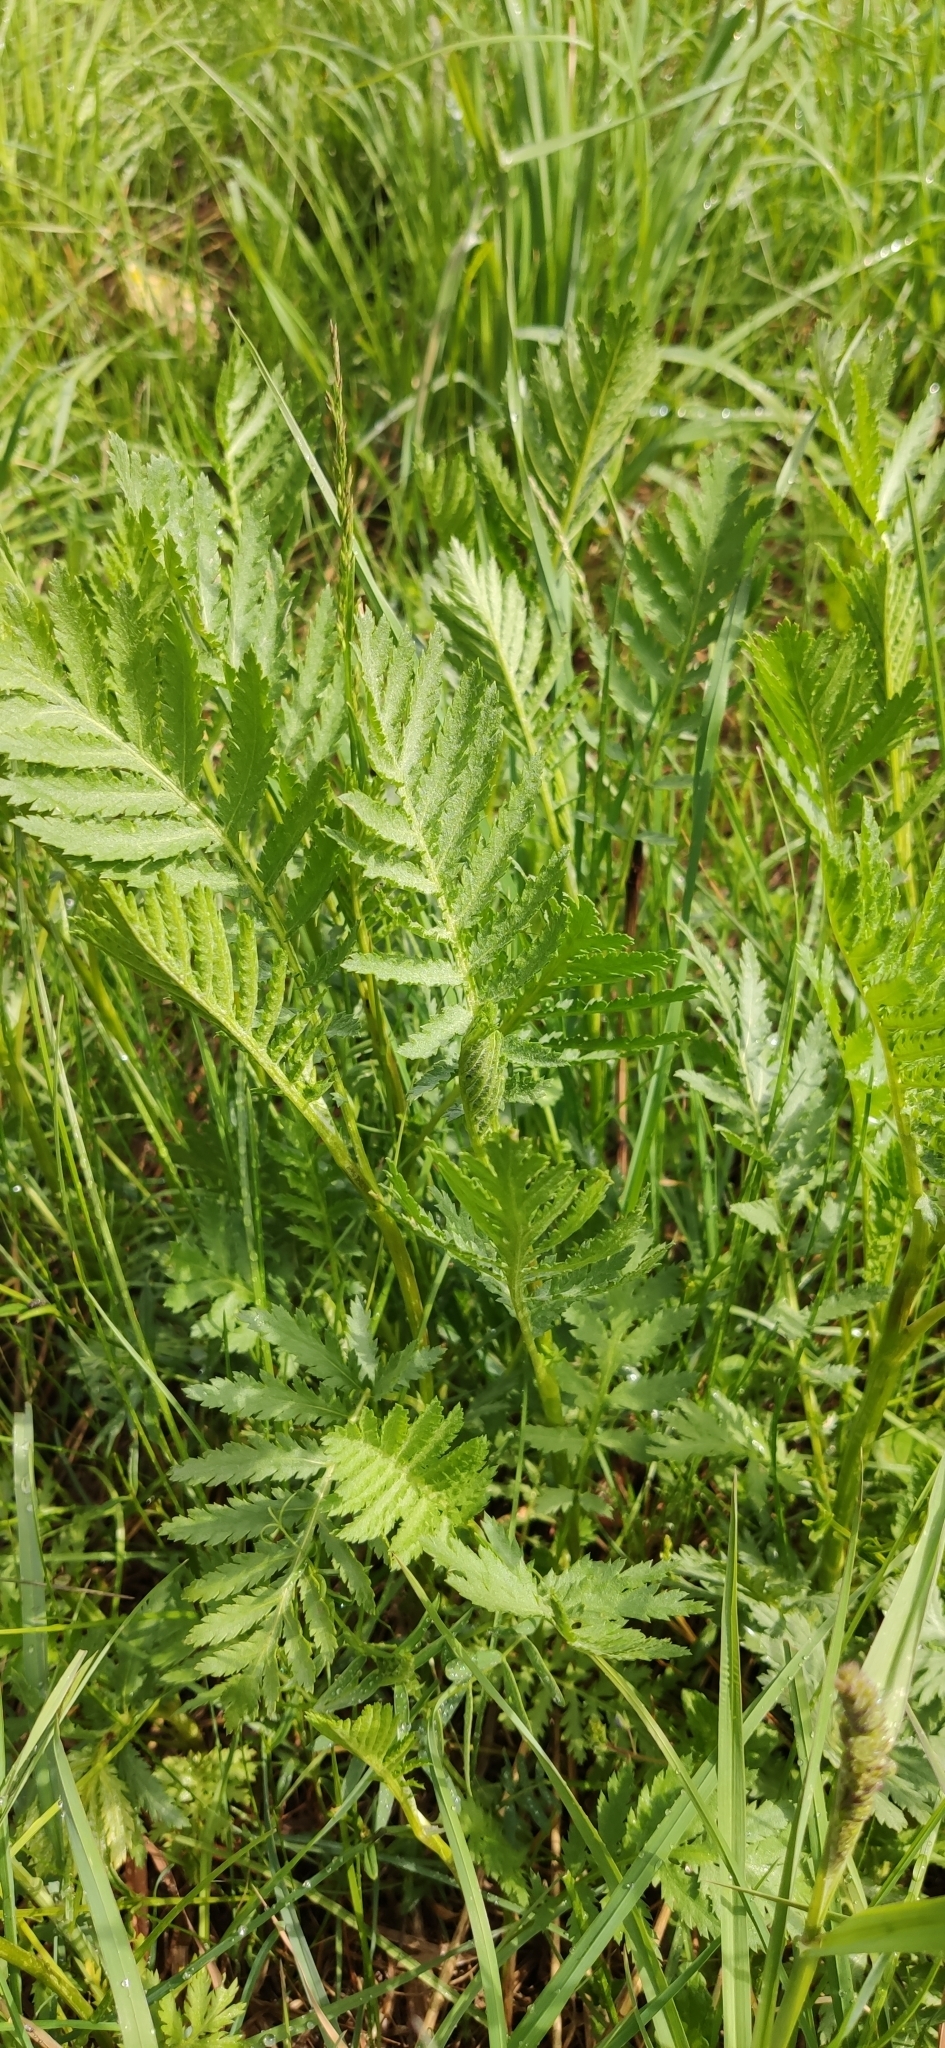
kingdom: Plantae
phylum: Tracheophyta
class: Magnoliopsida
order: Asterales
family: Asteraceae
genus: Tanacetum
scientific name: Tanacetum vulgare
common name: Common tansy
